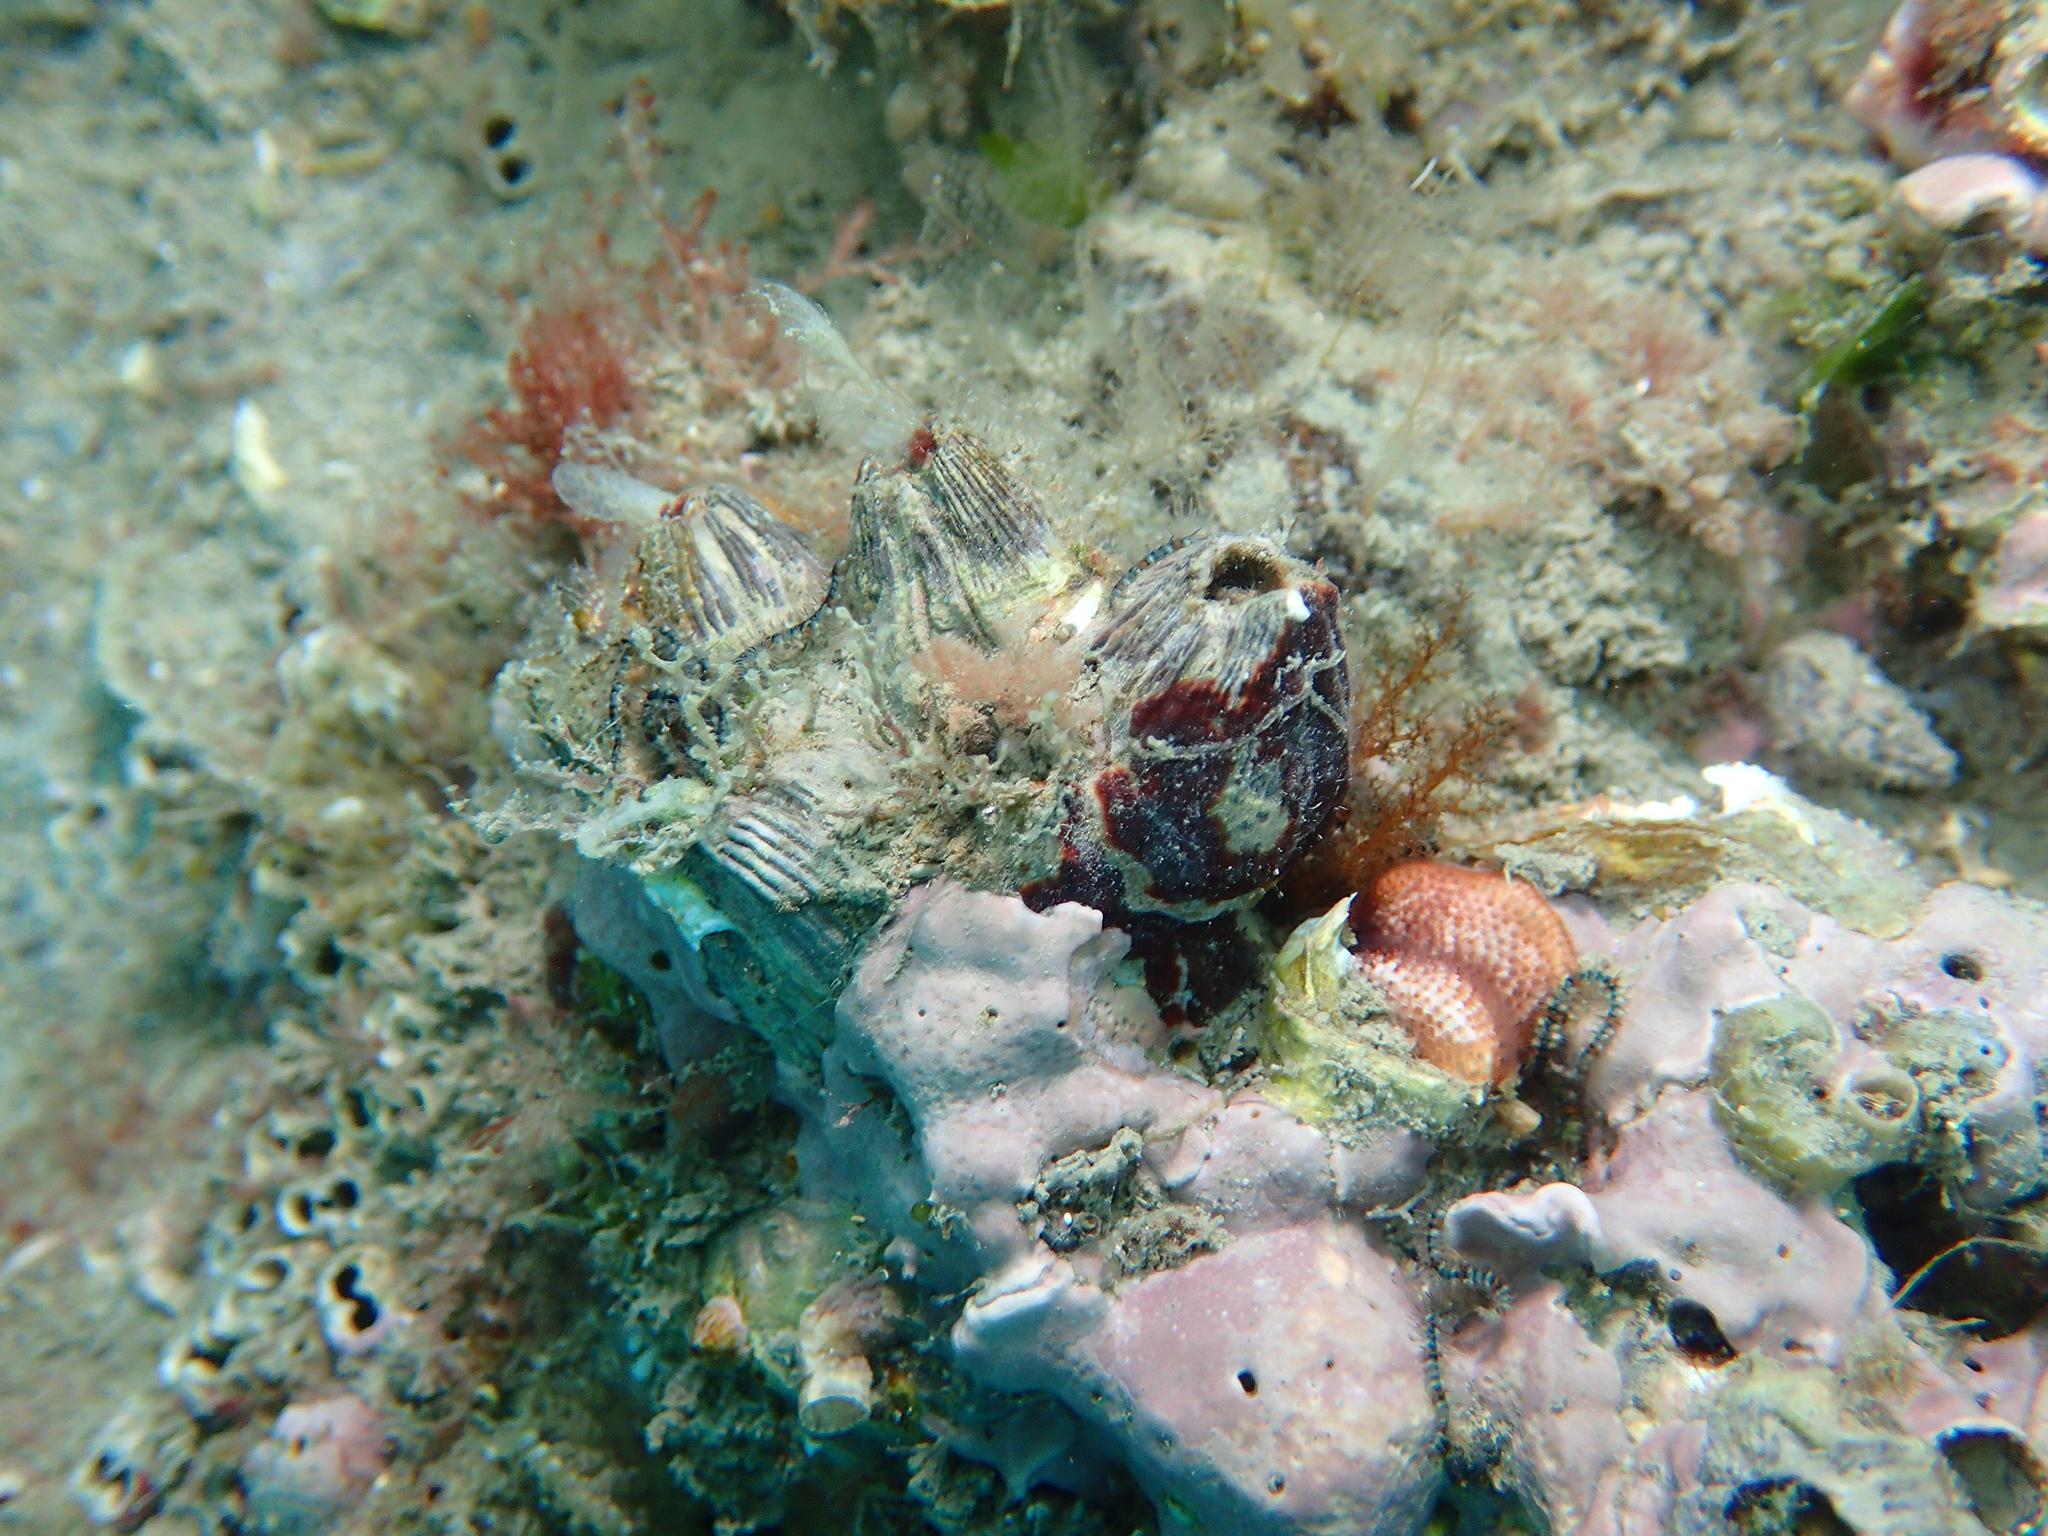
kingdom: Animalia
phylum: Arthropoda
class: Maxillopoda
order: Sessilia
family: Balanidae
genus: Perforatus
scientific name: Perforatus perforatus
